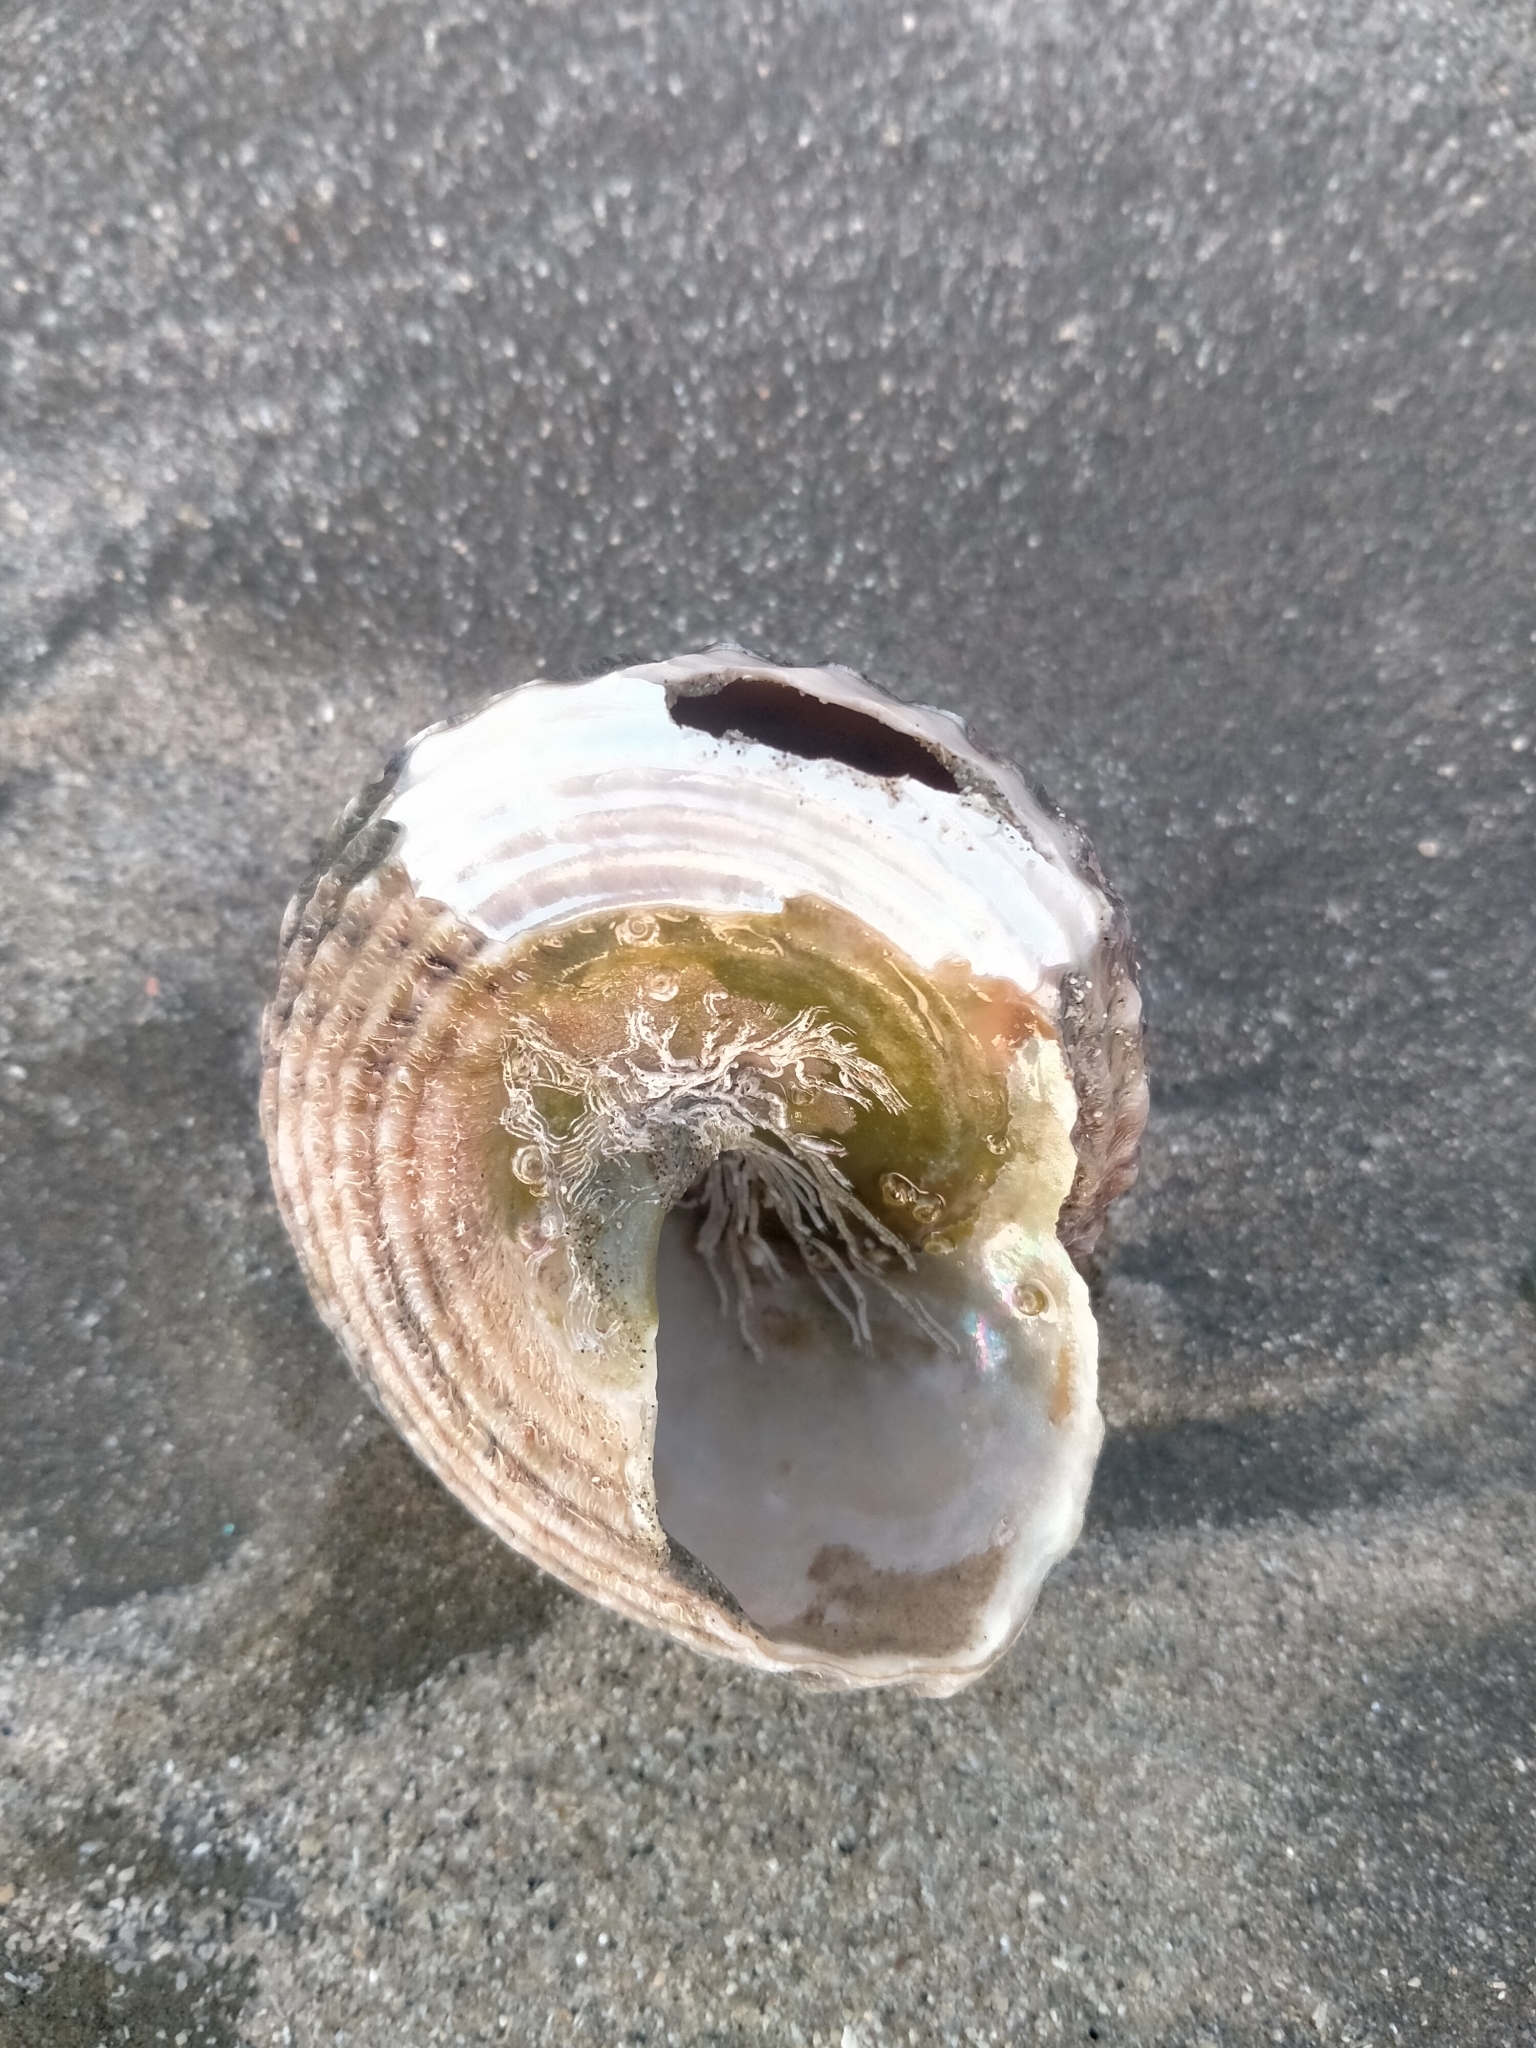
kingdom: Animalia
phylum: Mollusca
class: Gastropoda
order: Trochida
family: Turbinidae
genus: Cookia
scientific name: Cookia sulcata
